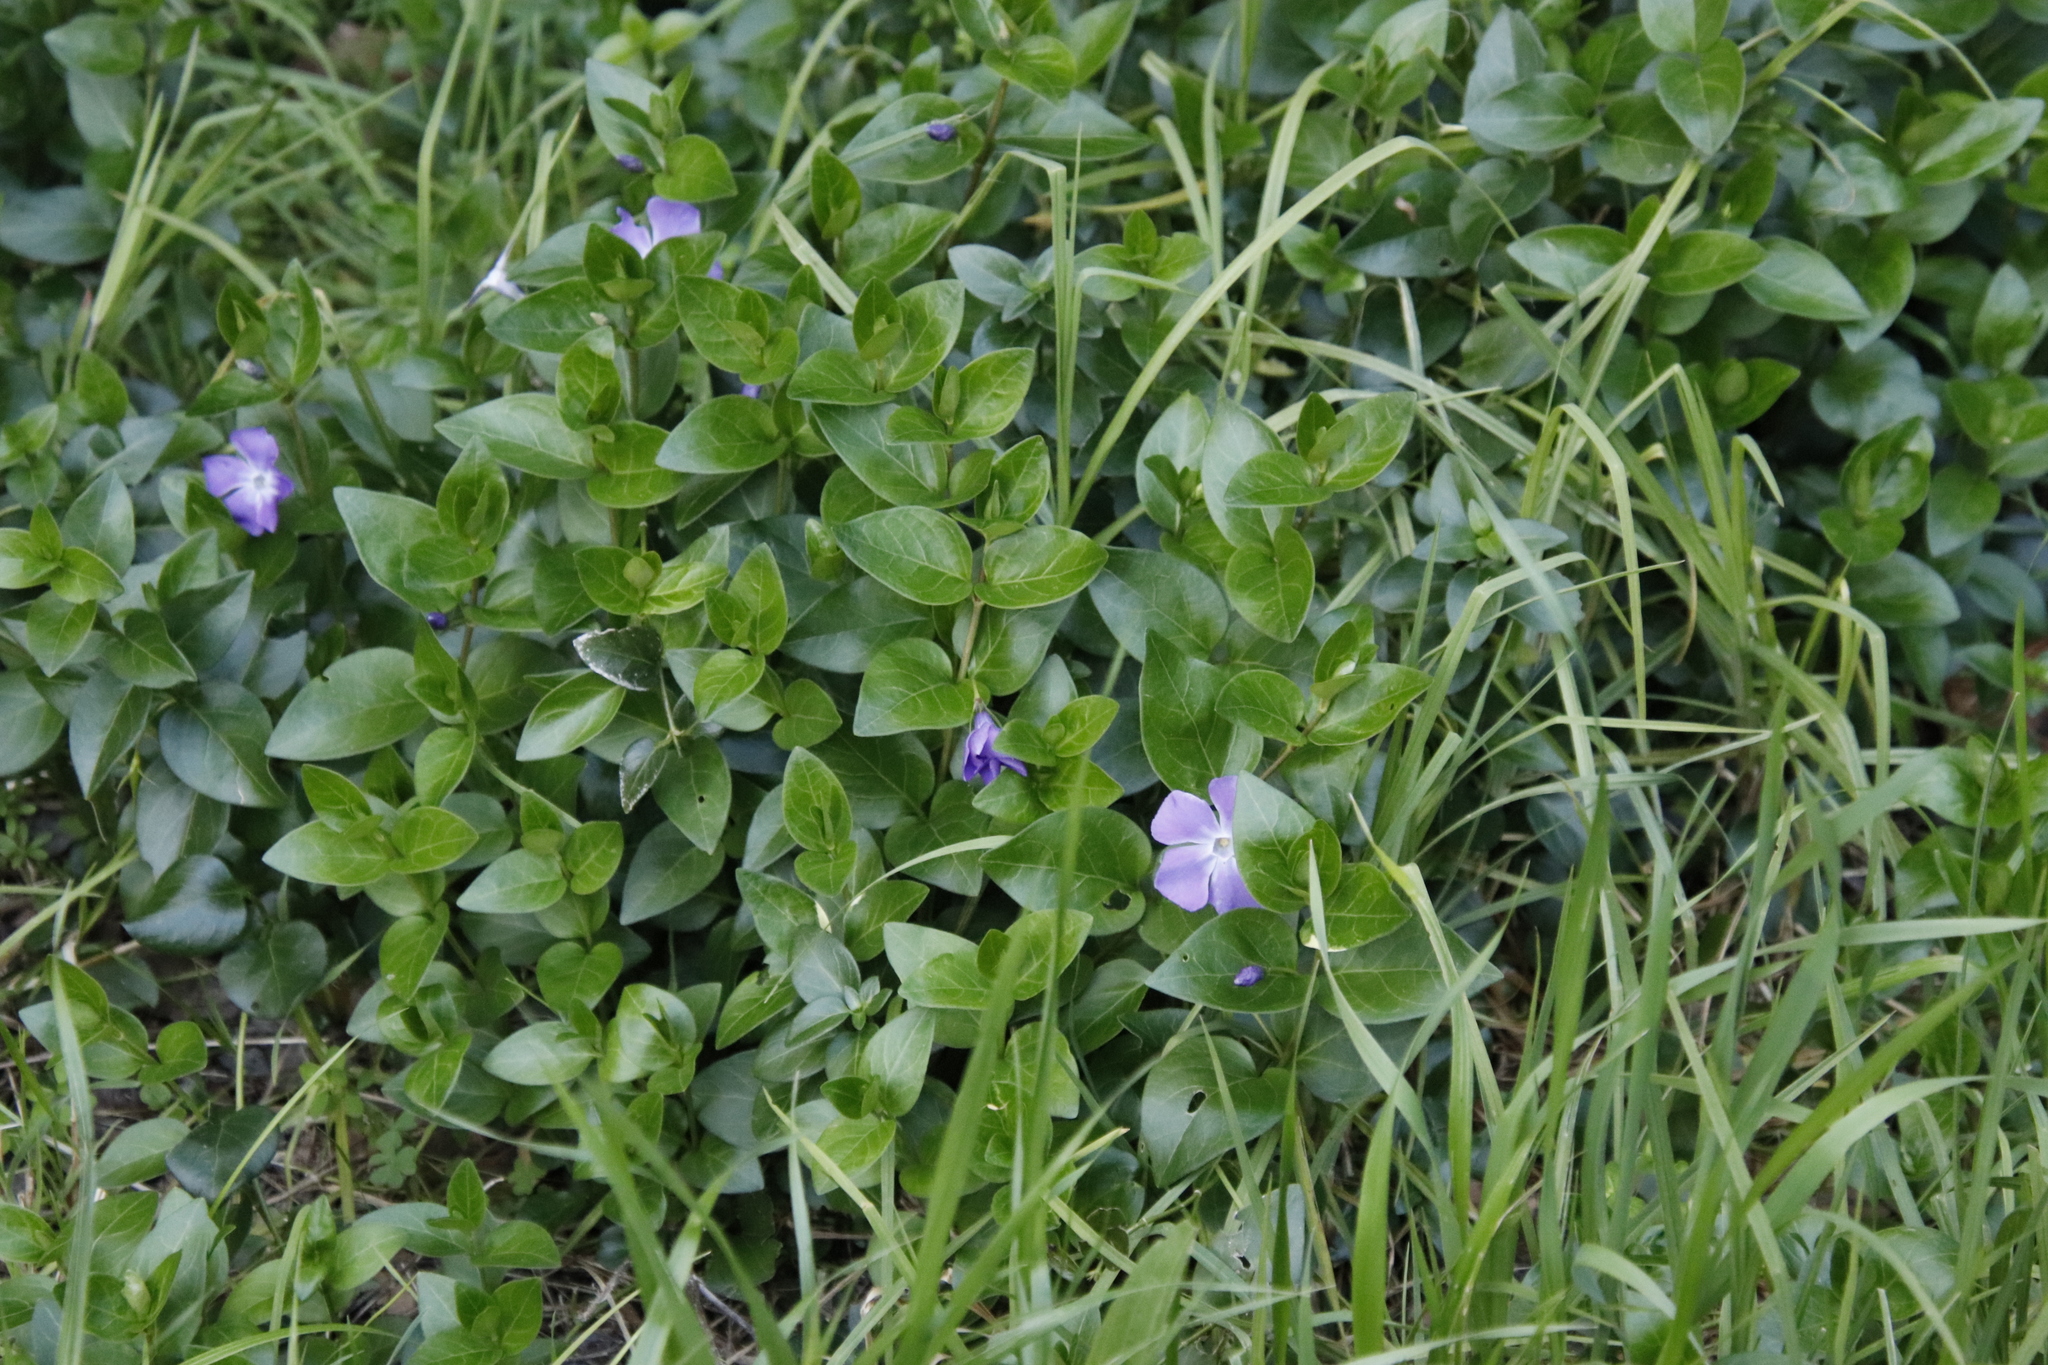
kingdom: Plantae
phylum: Tracheophyta
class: Magnoliopsida
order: Gentianales
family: Apocynaceae
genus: Vinca
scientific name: Vinca major
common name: Greater periwinkle
